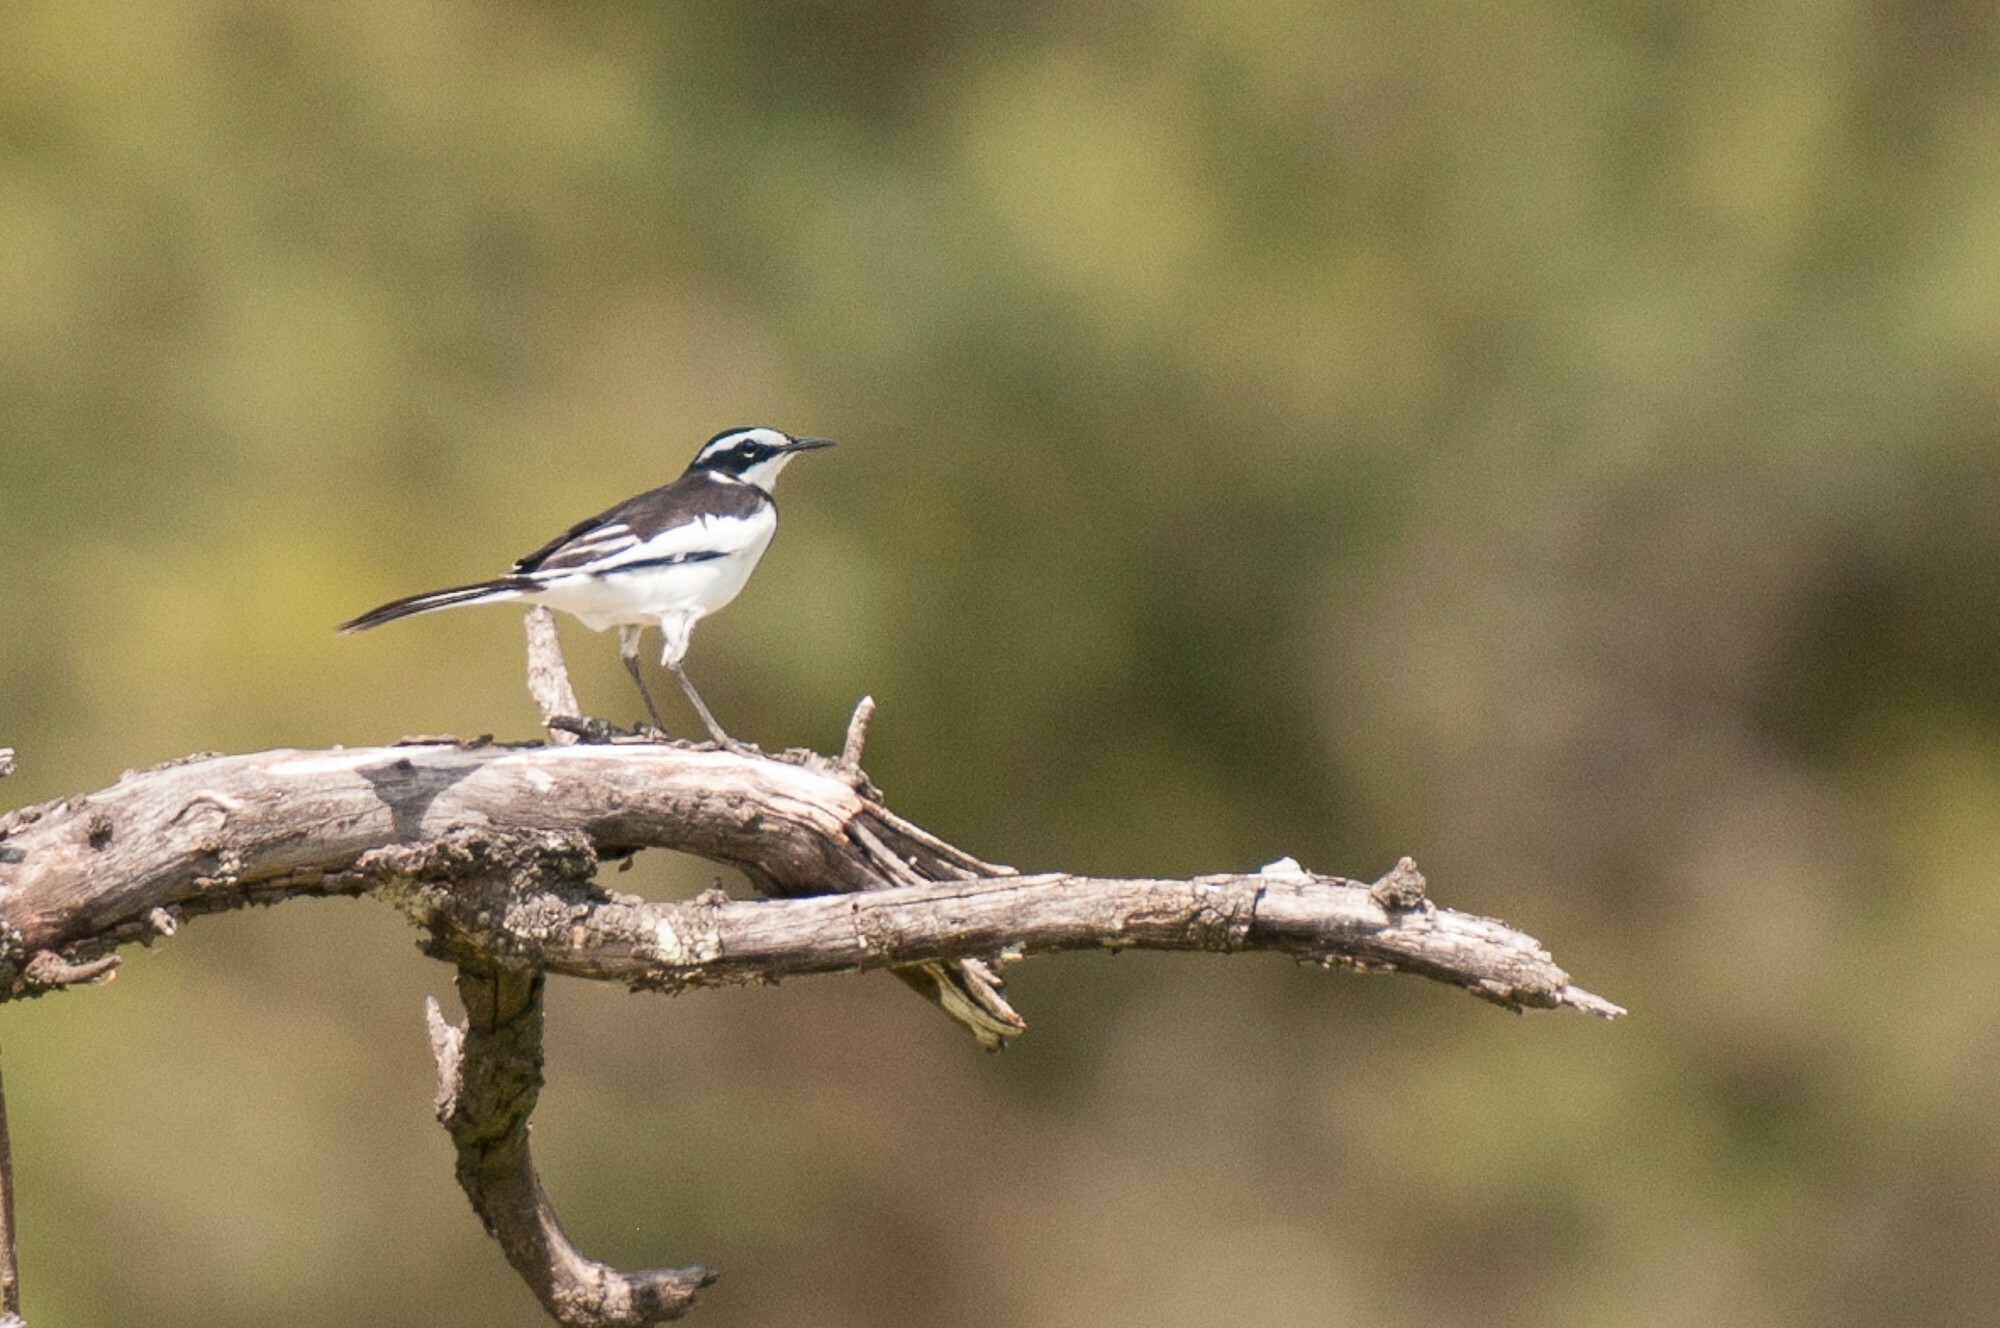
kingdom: Animalia
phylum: Chordata
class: Aves
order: Passeriformes
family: Motacillidae
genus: Motacilla
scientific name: Motacilla aguimp
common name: African pied wagtail
